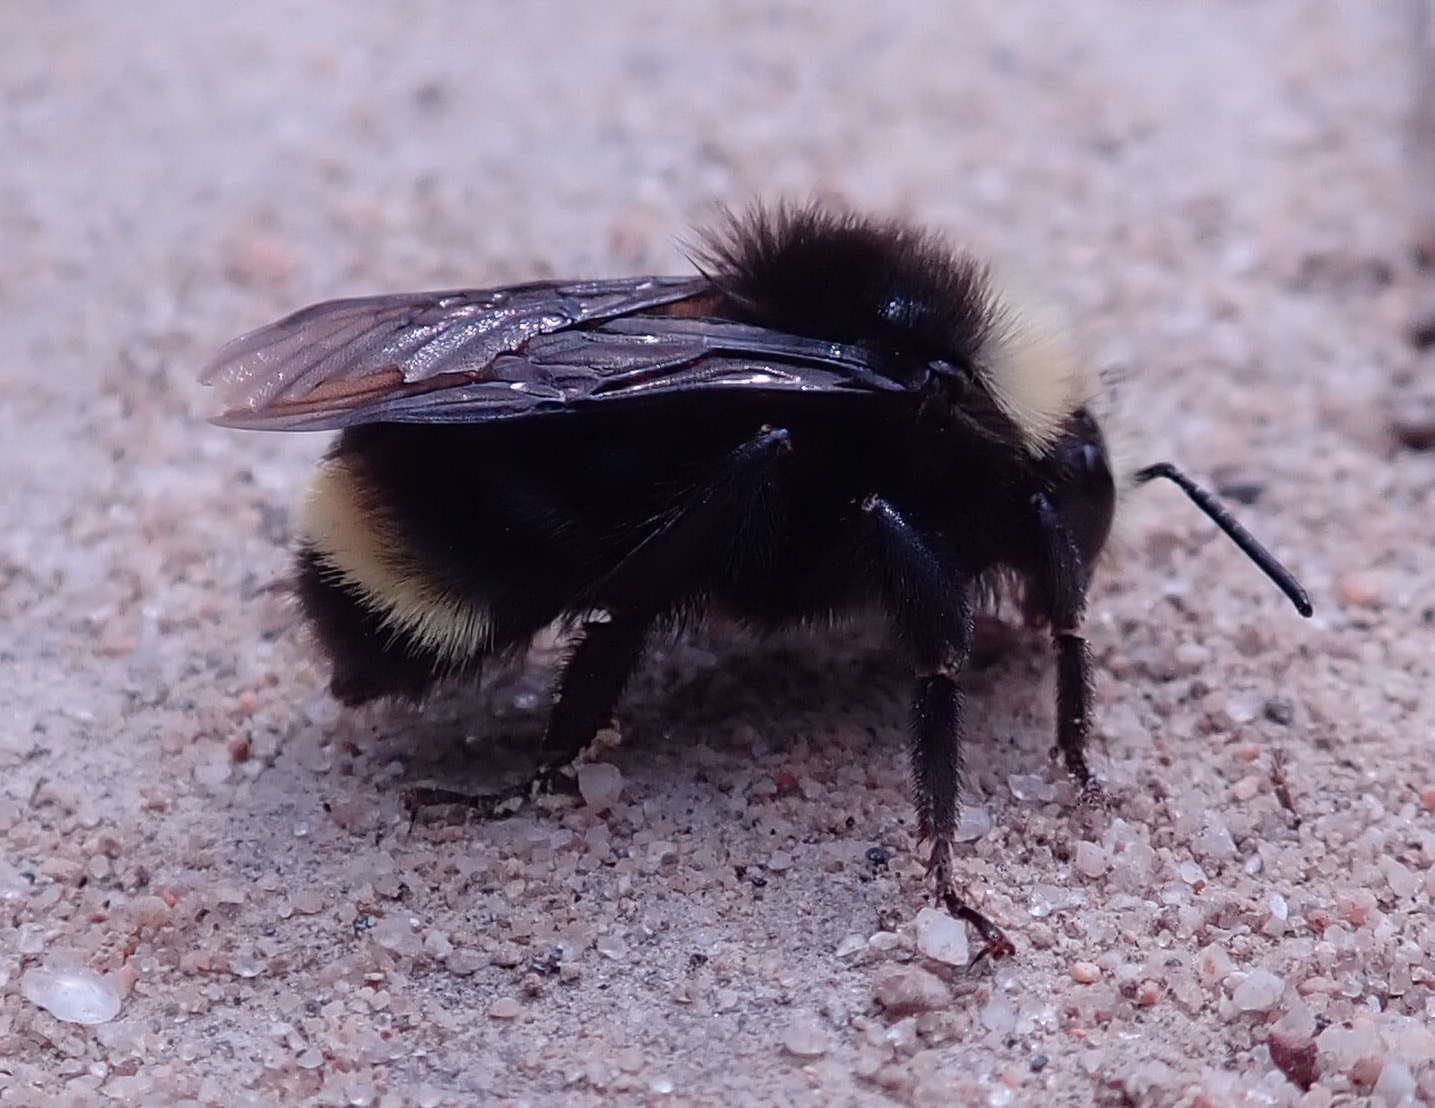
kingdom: Animalia
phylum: Arthropoda
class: Insecta
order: Hymenoptera
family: Apidae
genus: Bombus
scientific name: Bombus vosnesenskii
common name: Vosnesensky bumble bee
